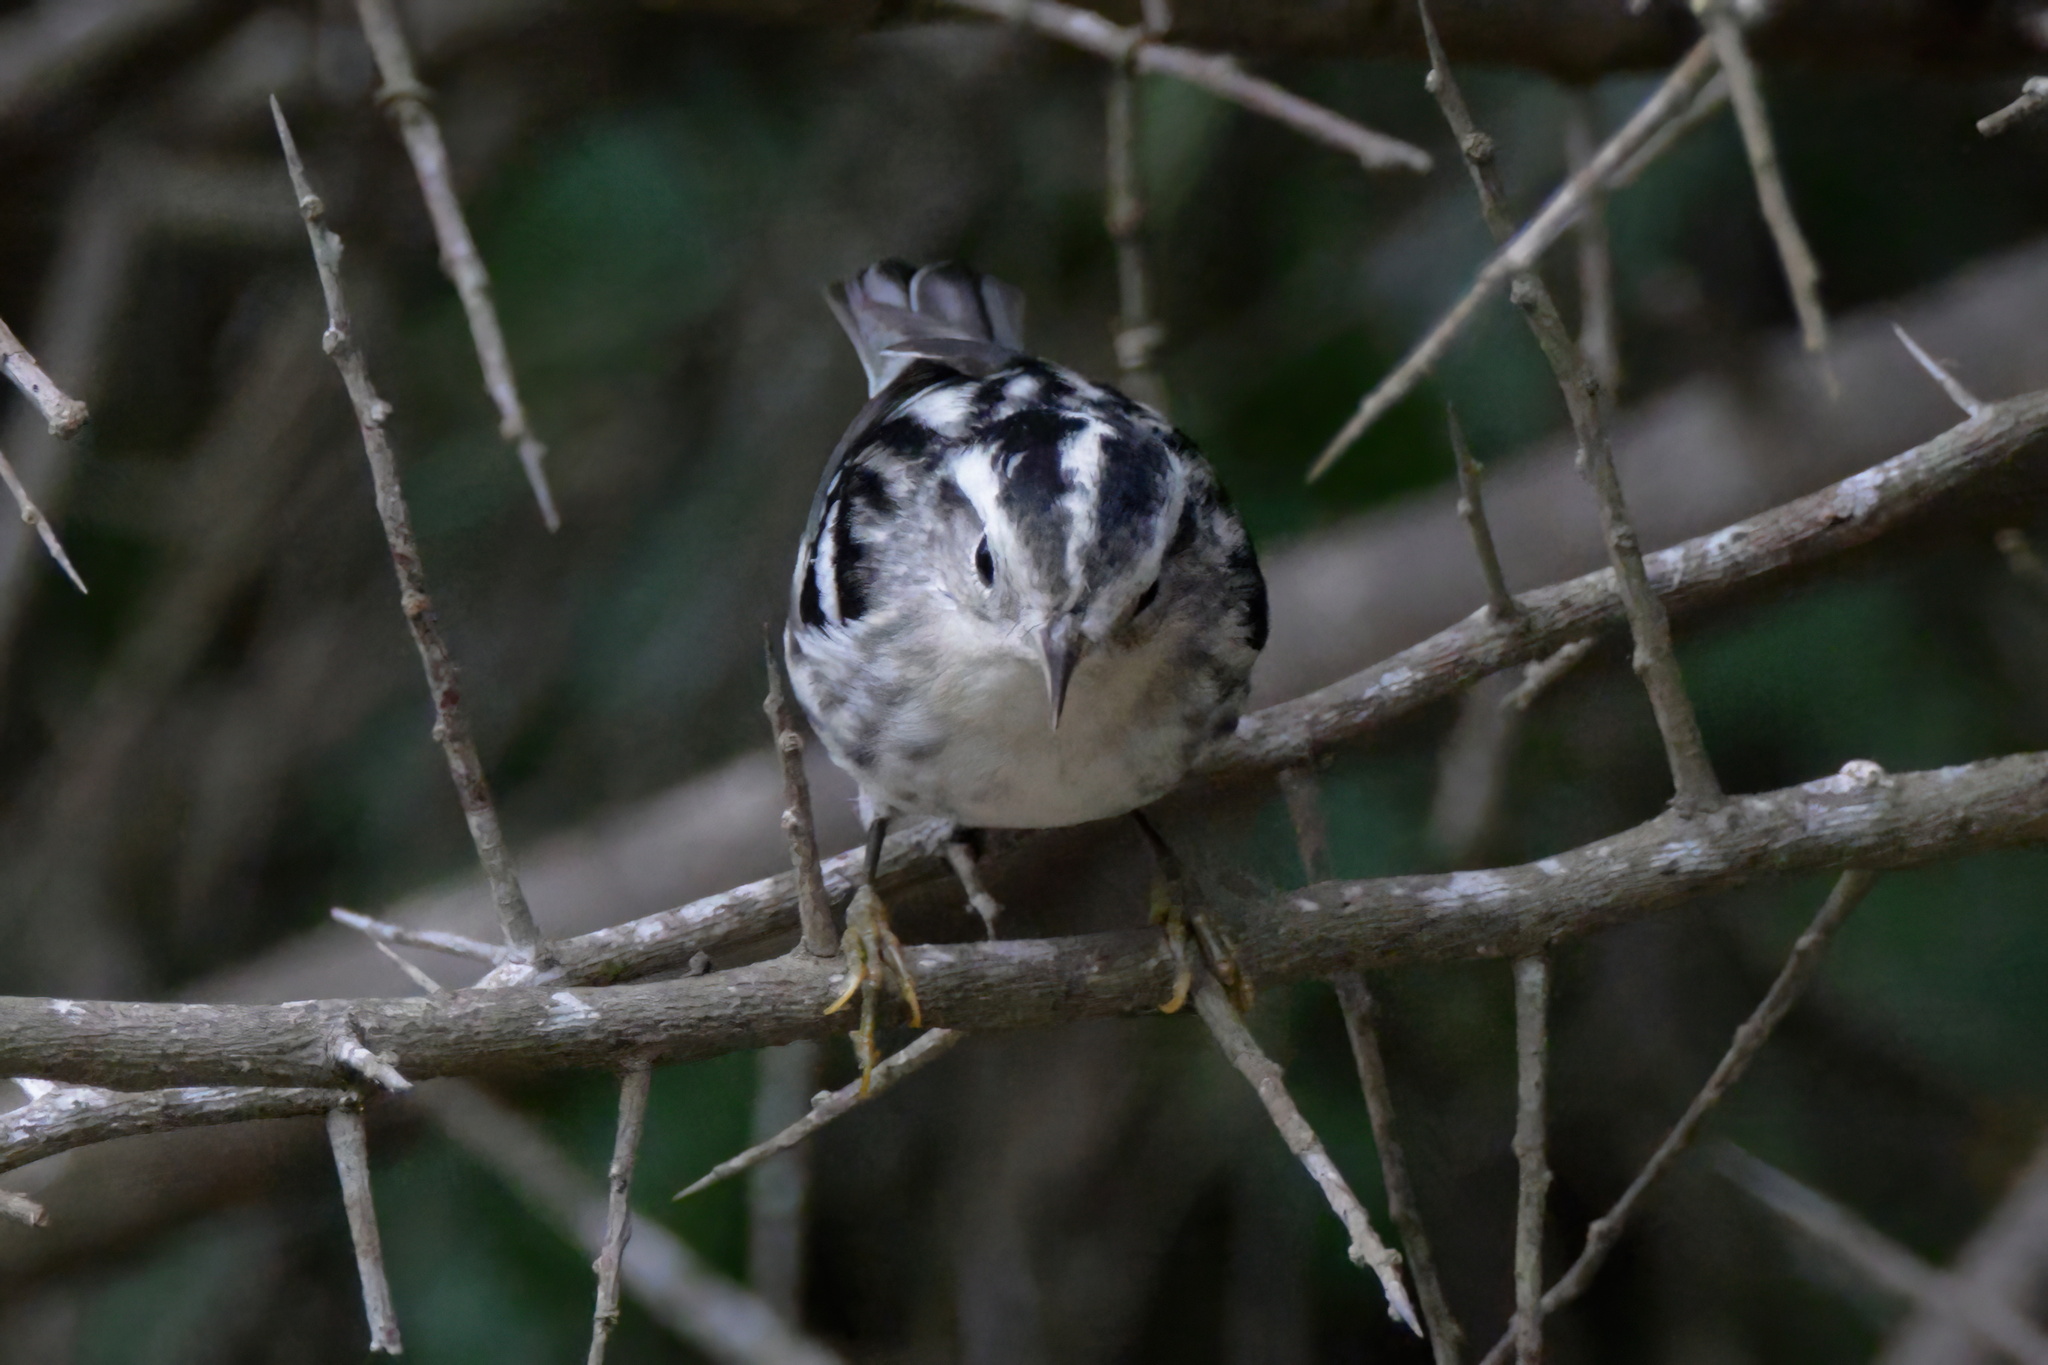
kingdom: Animalia
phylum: Chordata
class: Aves
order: Passeriformes
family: Parulidae
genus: Mniotilta
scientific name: Mniotilta varia
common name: Black-and-white warbler
